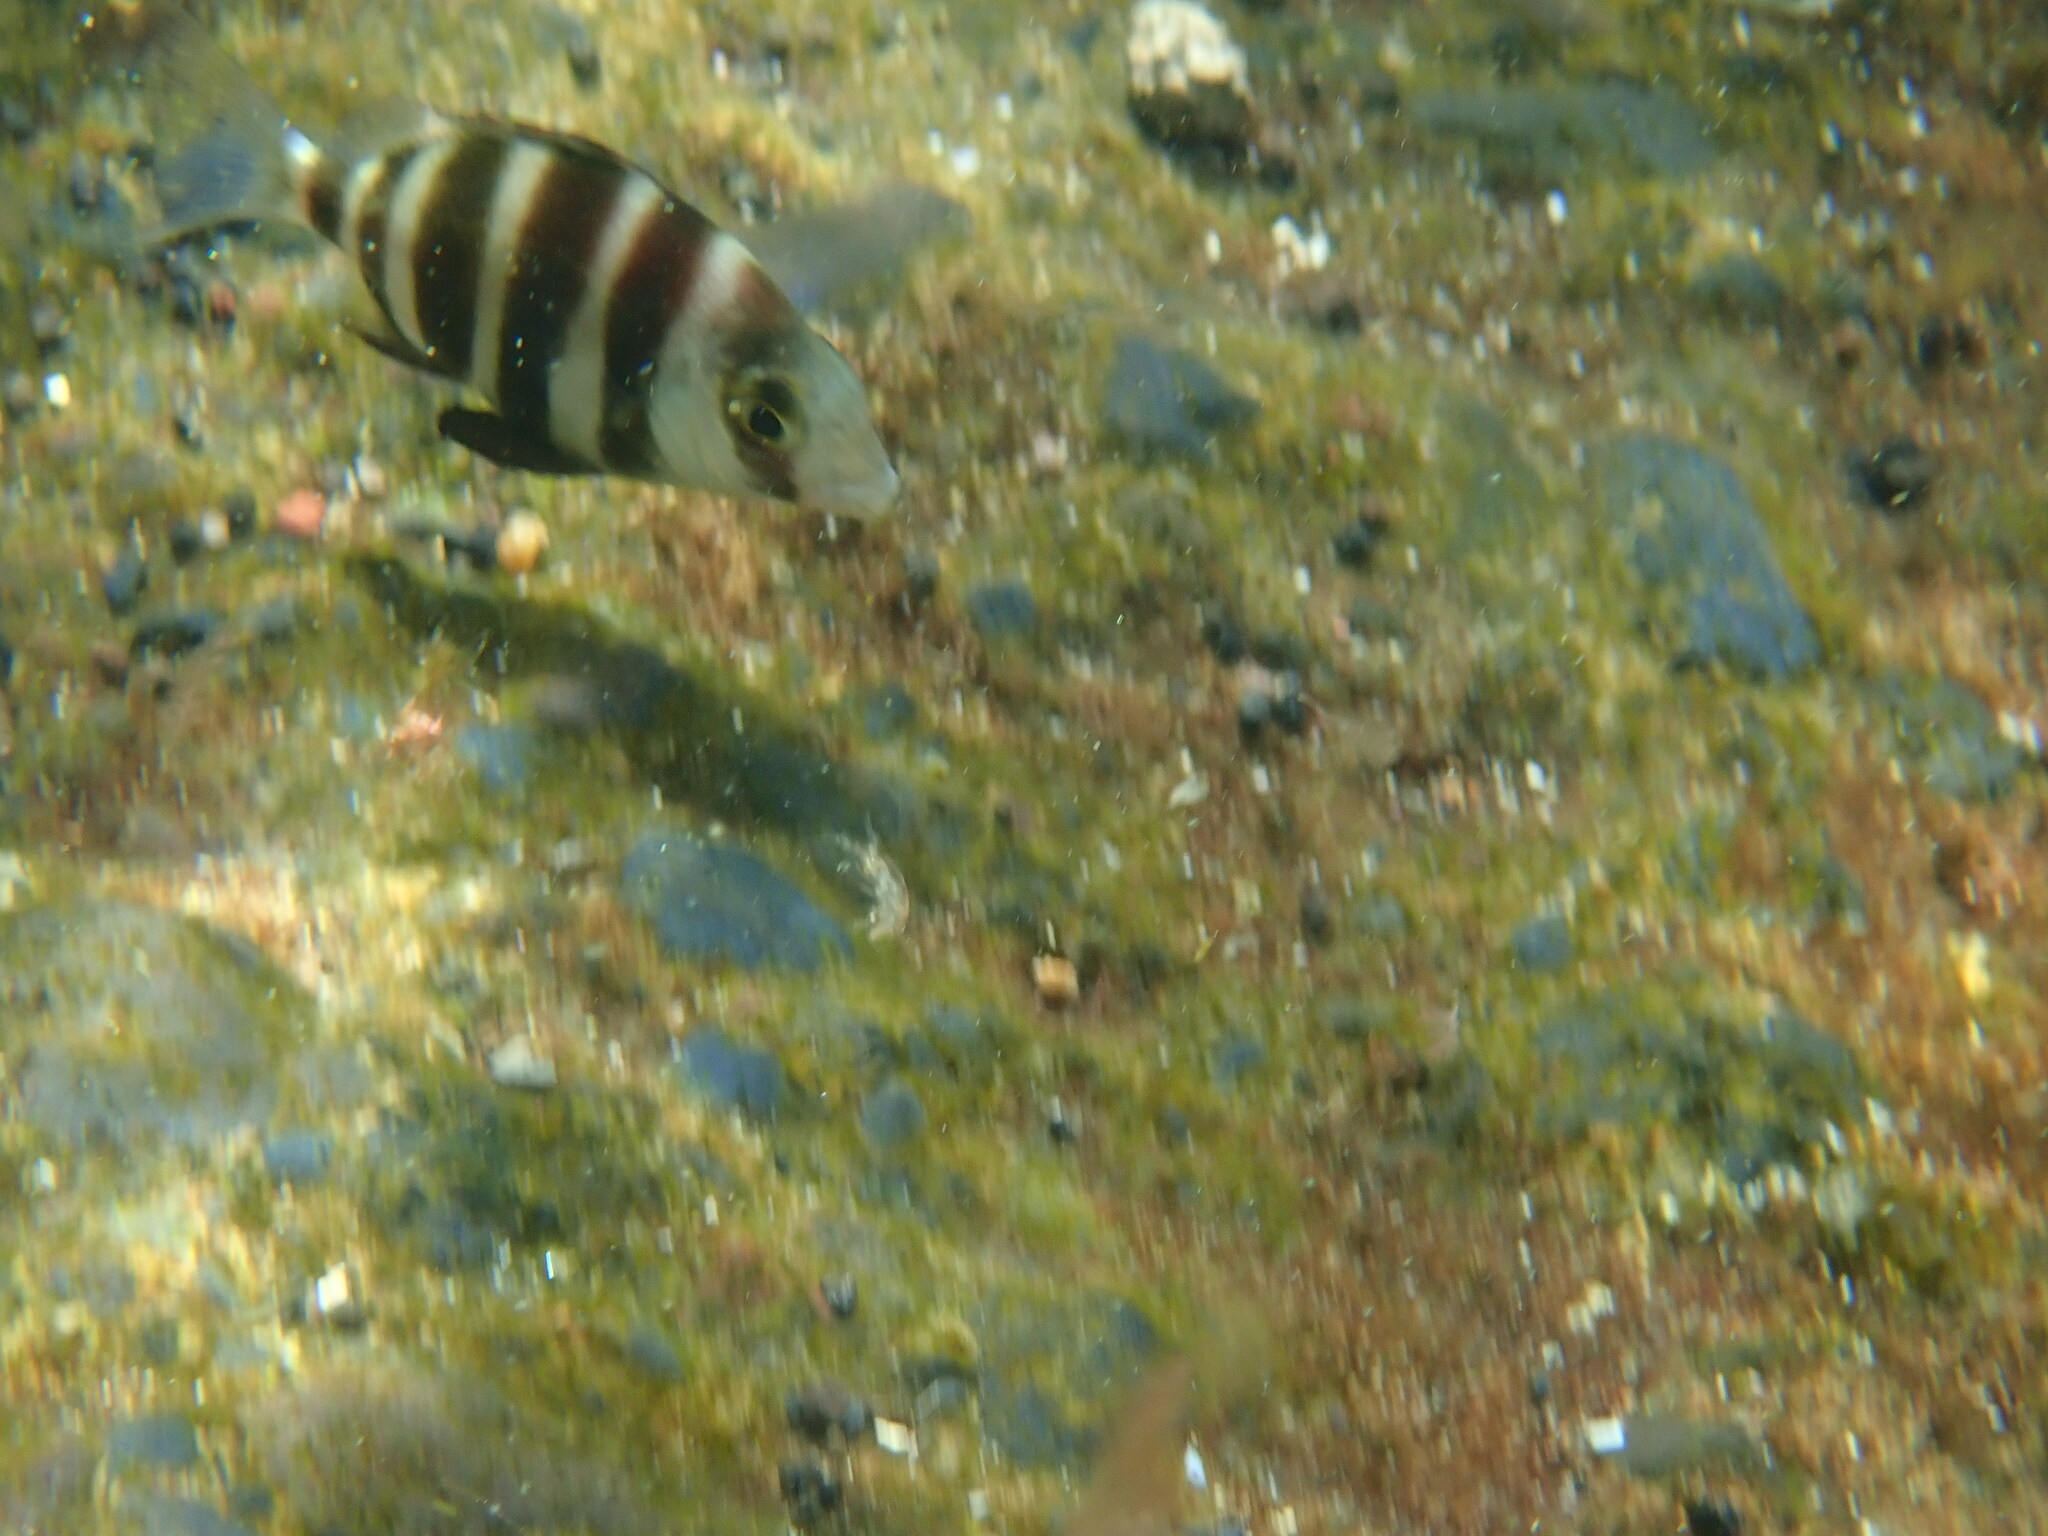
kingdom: Animalia
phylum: Chordata
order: Perciformes
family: Sparidae
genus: Diplodus
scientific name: Diplodus cervinus
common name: Oman porgy
